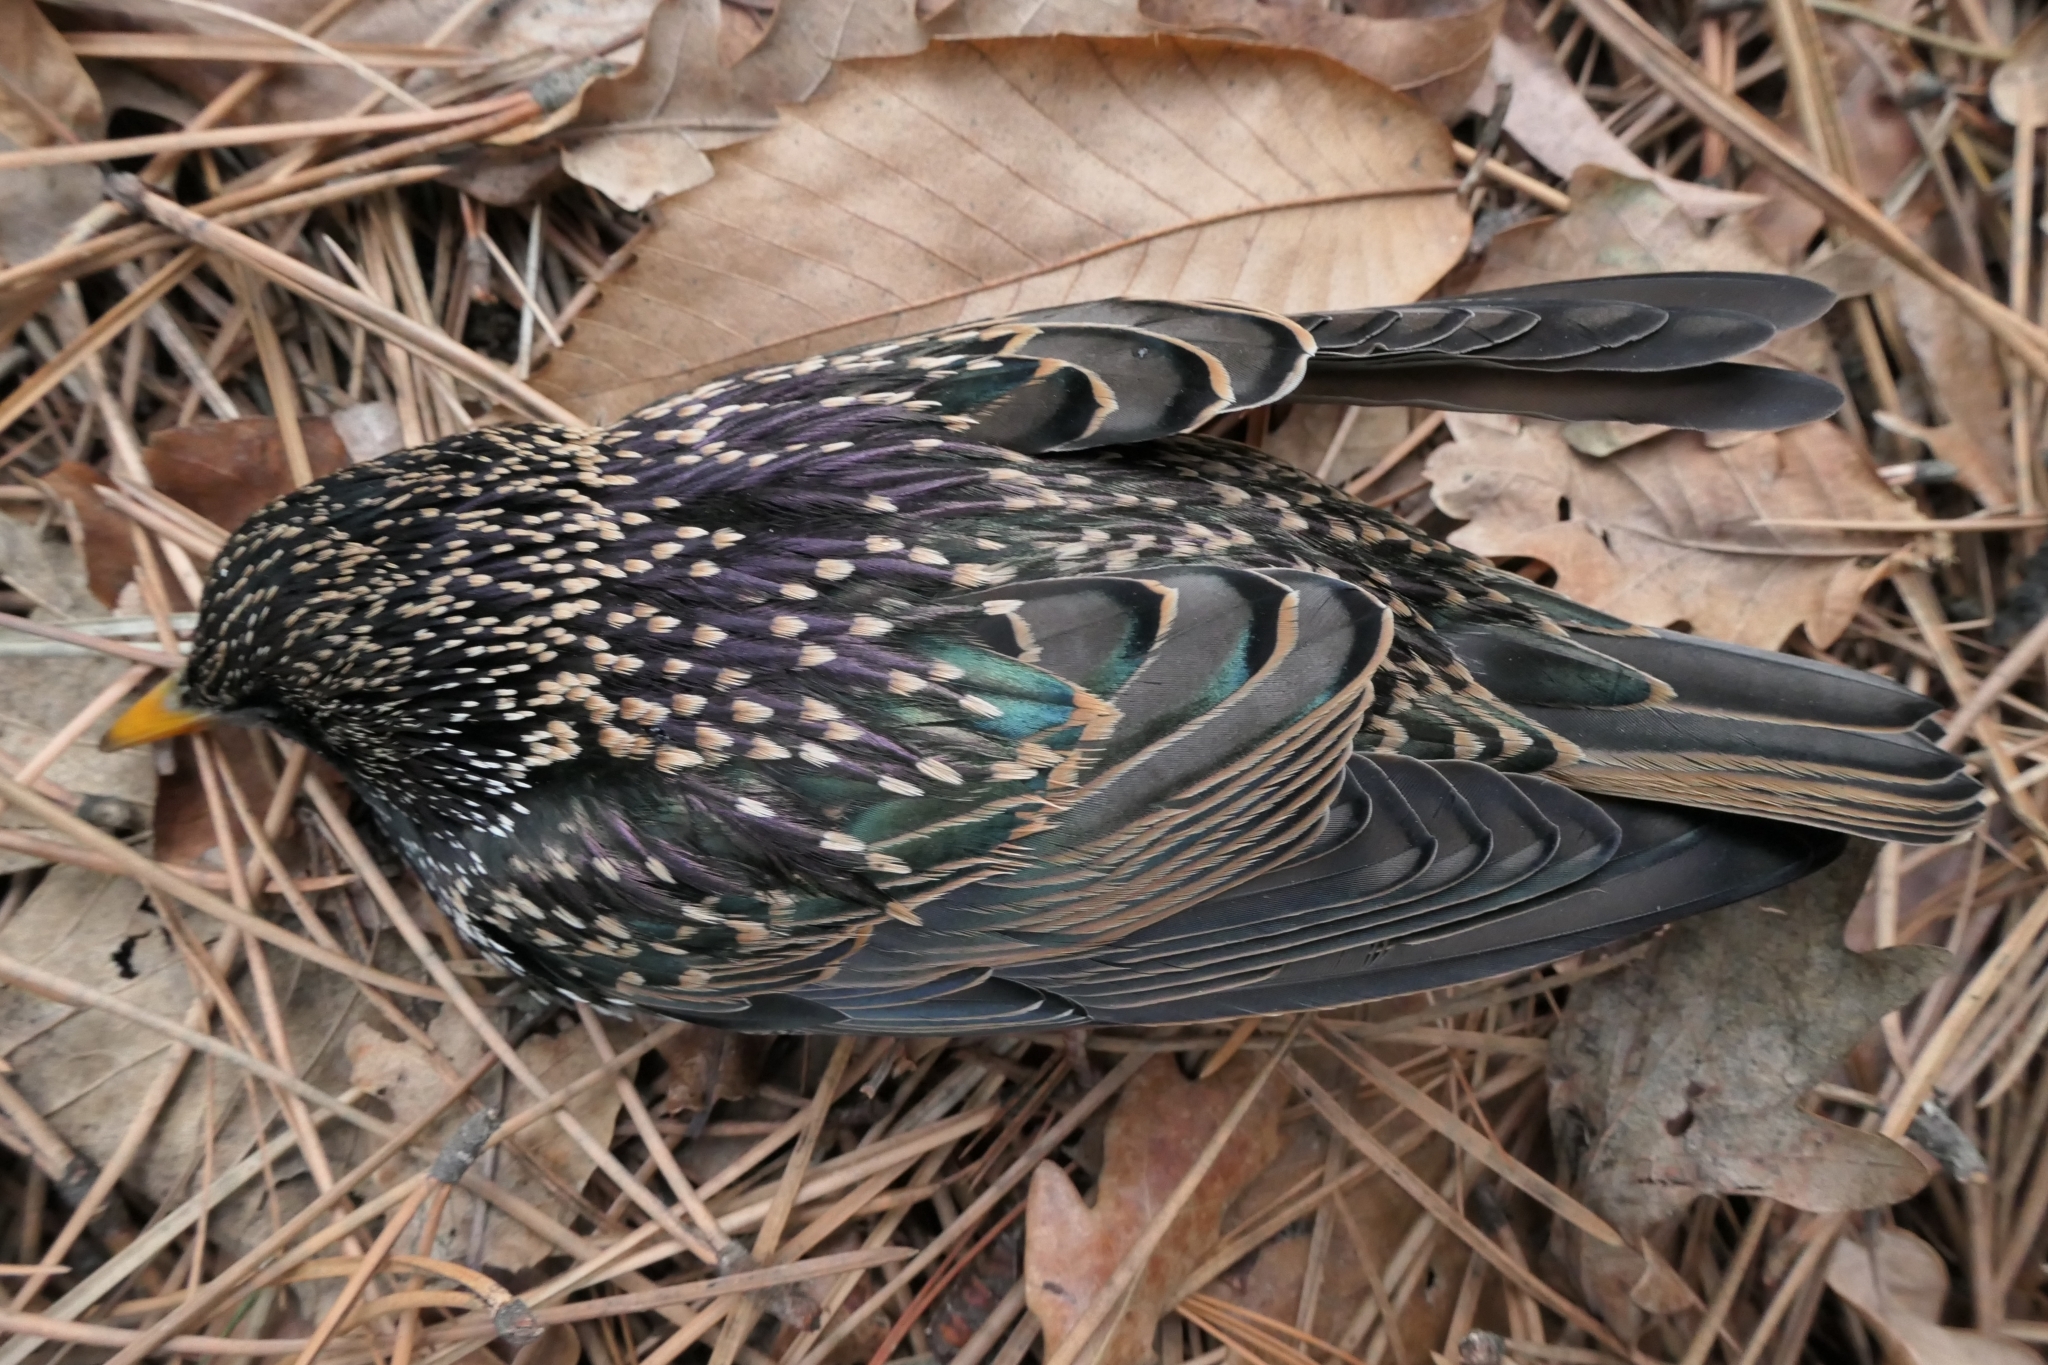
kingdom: Animalia
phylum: Chordata
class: Aves
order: Passeriformes
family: Sturnidae
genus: Sturnus
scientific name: Sturnus vulgaris
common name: Common starling
